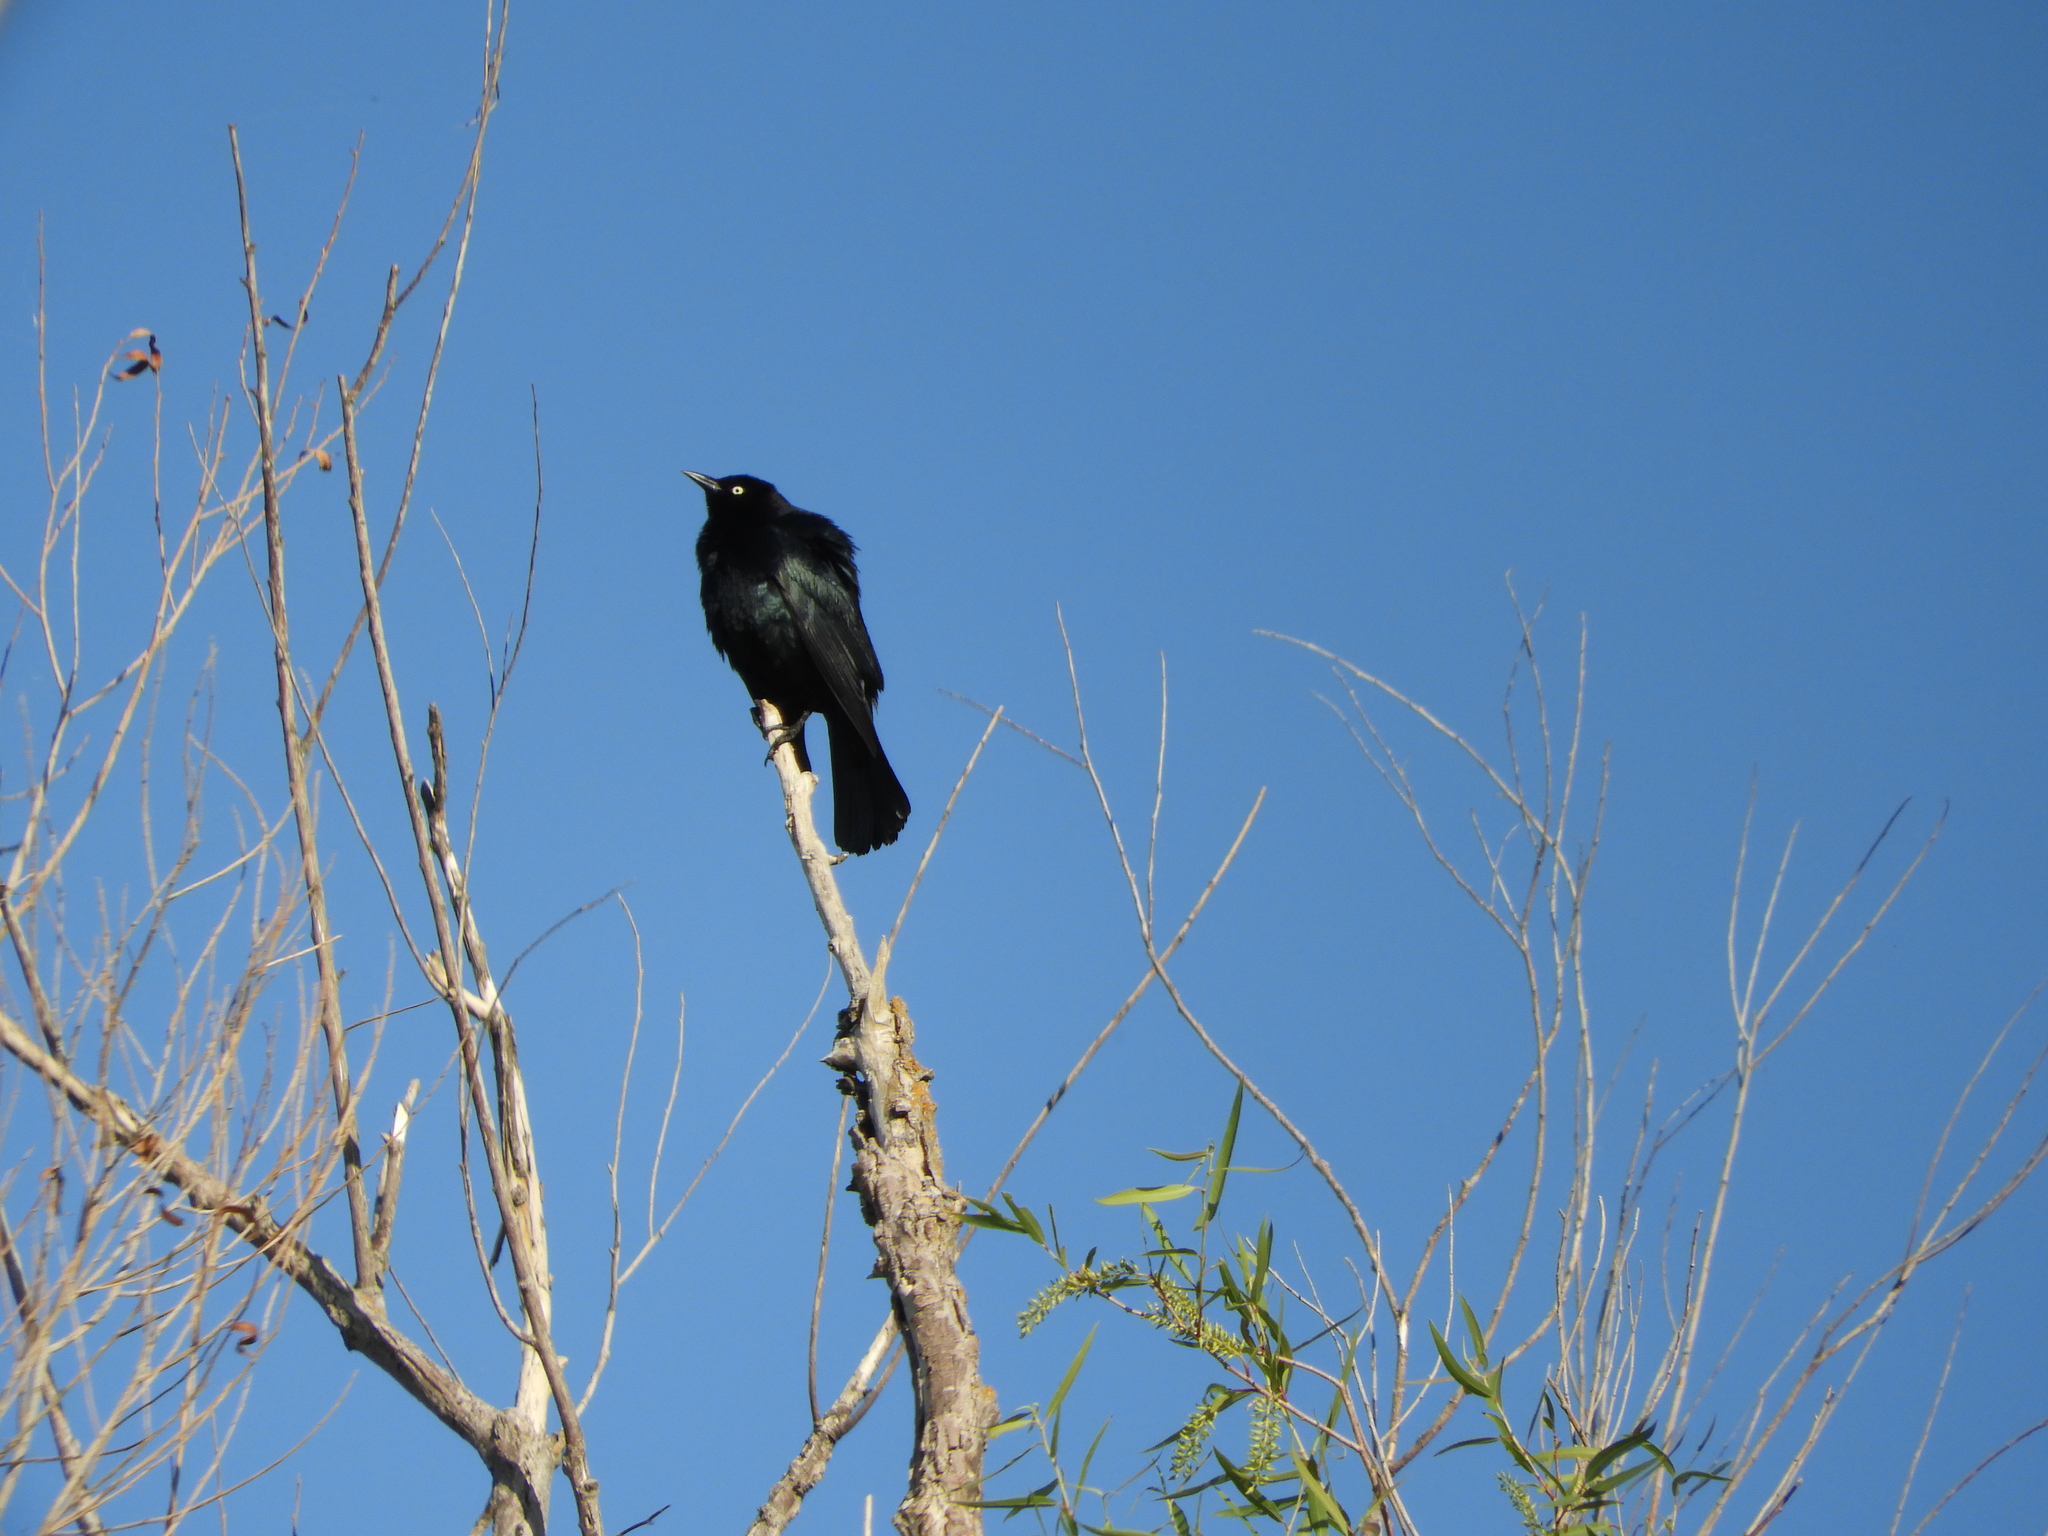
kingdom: Animalia
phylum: Chordata
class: Aves
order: Passeriformes
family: Icteridae
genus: Euphagus
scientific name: Euphagus cyanocephalus
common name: Brewer's blackbird
